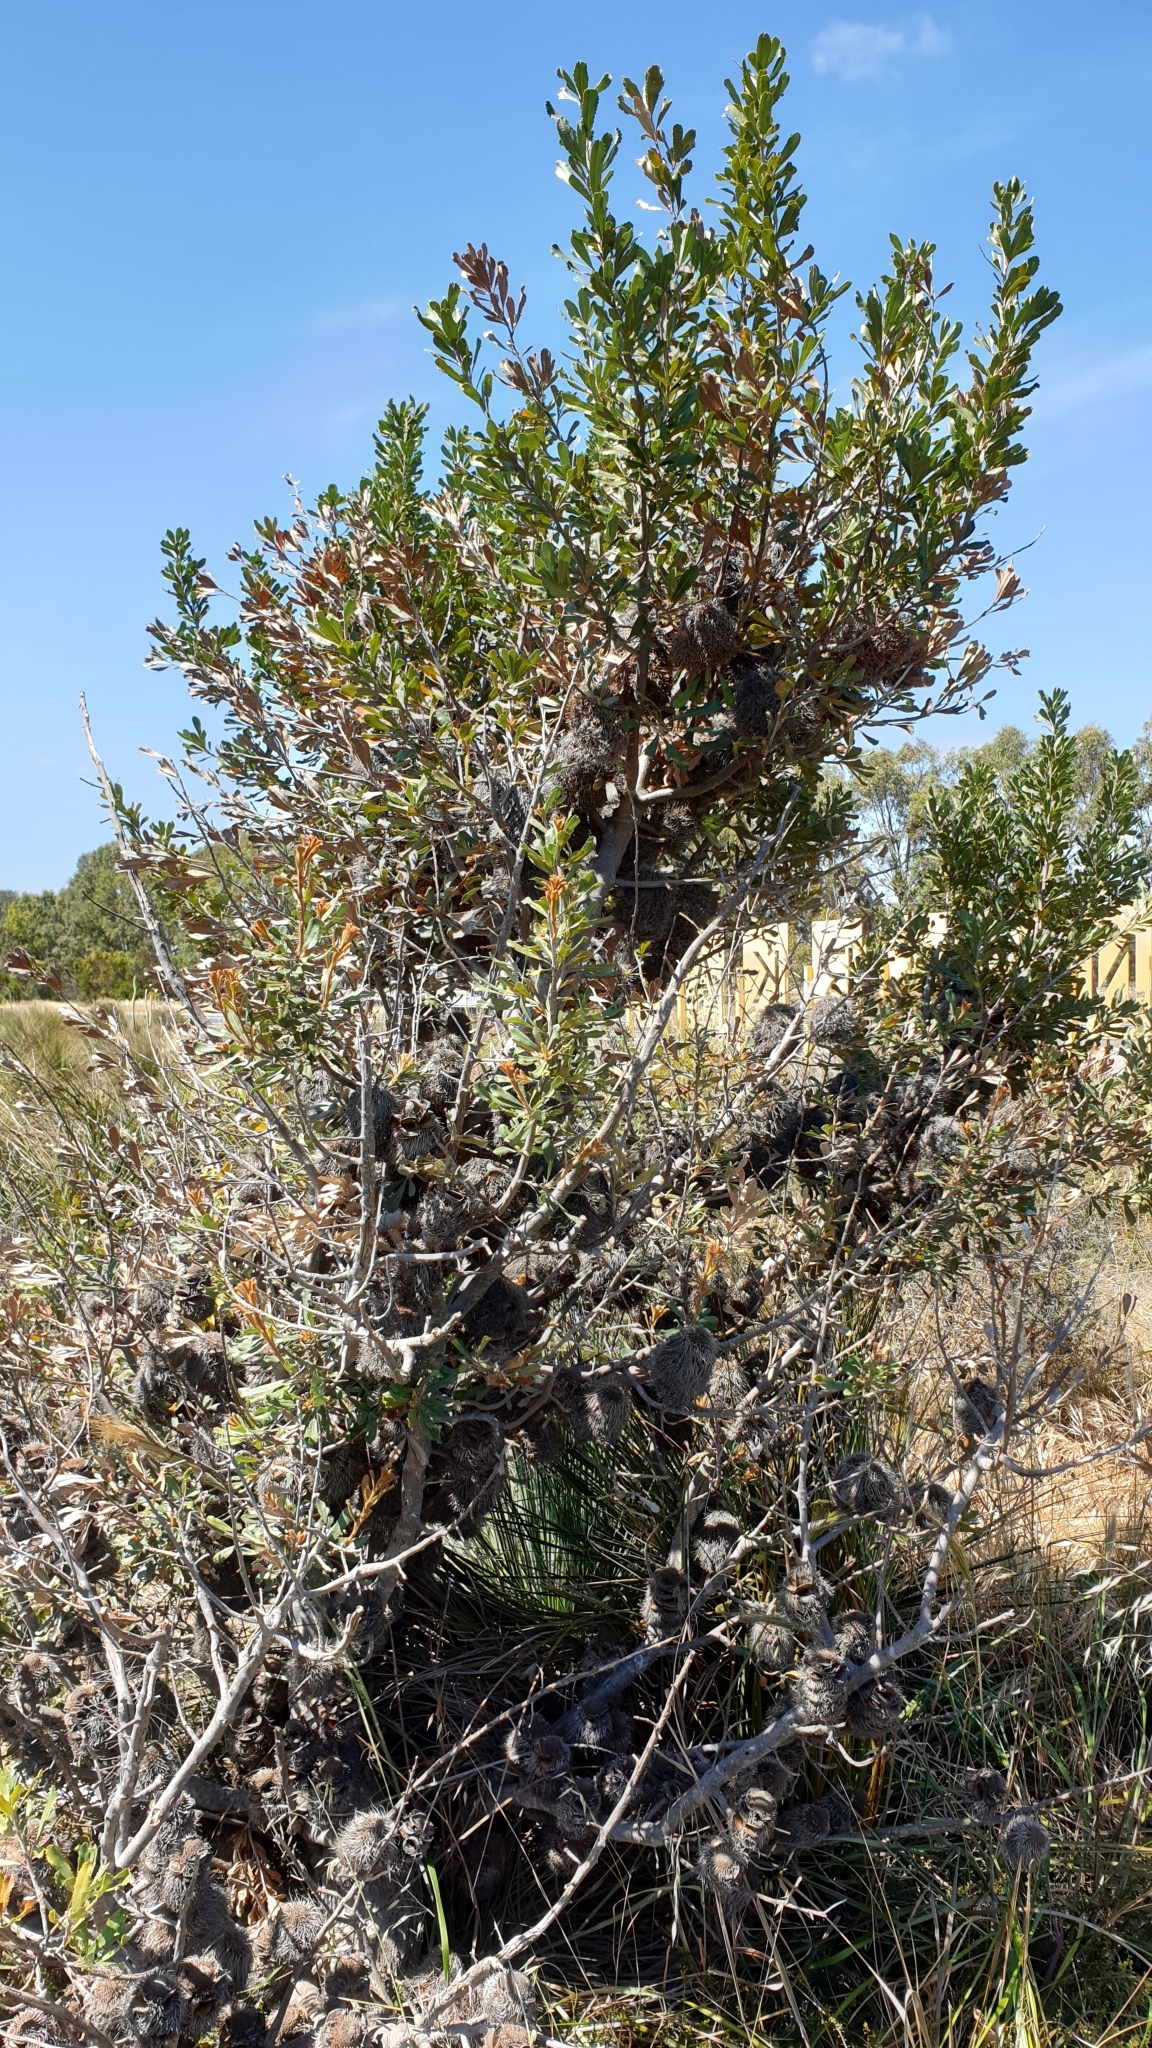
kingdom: Plantae
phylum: Tracheophyta
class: Magnoliopsida
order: Proteales
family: Proteaceae
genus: Banksia
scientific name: Banksia ornata
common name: Desert banksia
